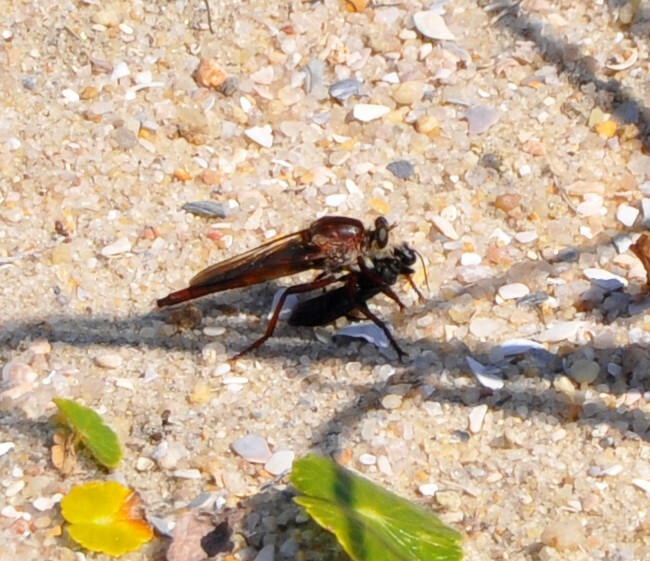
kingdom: Animalia
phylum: Arthropoda
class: Insecta
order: Diptera
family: Asilidae
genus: Proctacanthus
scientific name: Proctacanthus rufus
